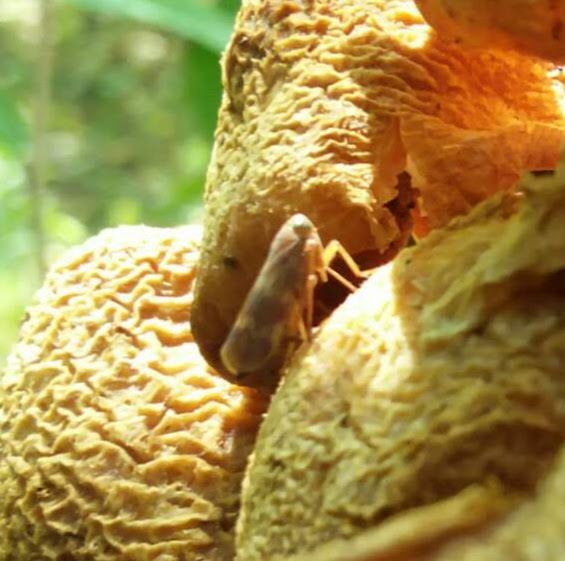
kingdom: Animalia
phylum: Arthropoda
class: Insecta
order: Hemiptera
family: Cicadellidae
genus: Jikradia
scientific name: Jikradia olitoria
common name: Coppery leafhopper
